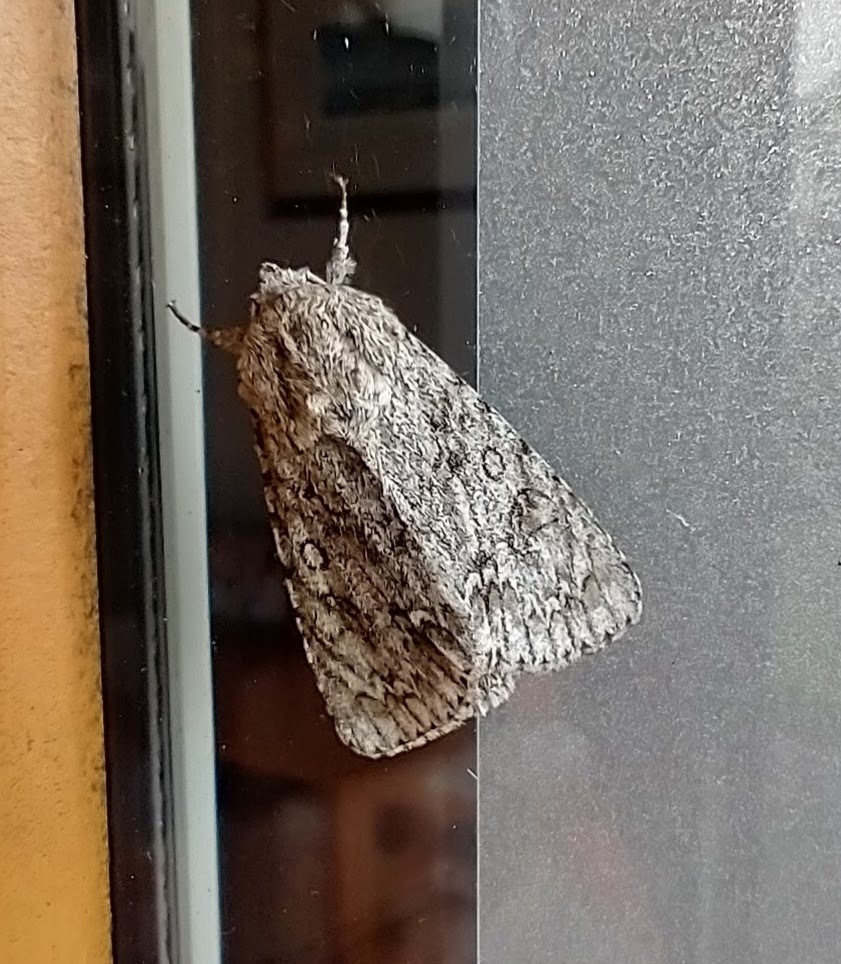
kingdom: Animalia
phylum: Arthropoda
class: Insecta
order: Lepidoptera
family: Noctuidae
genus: Acronicta
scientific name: Acronicta aceris
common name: Sycamore
